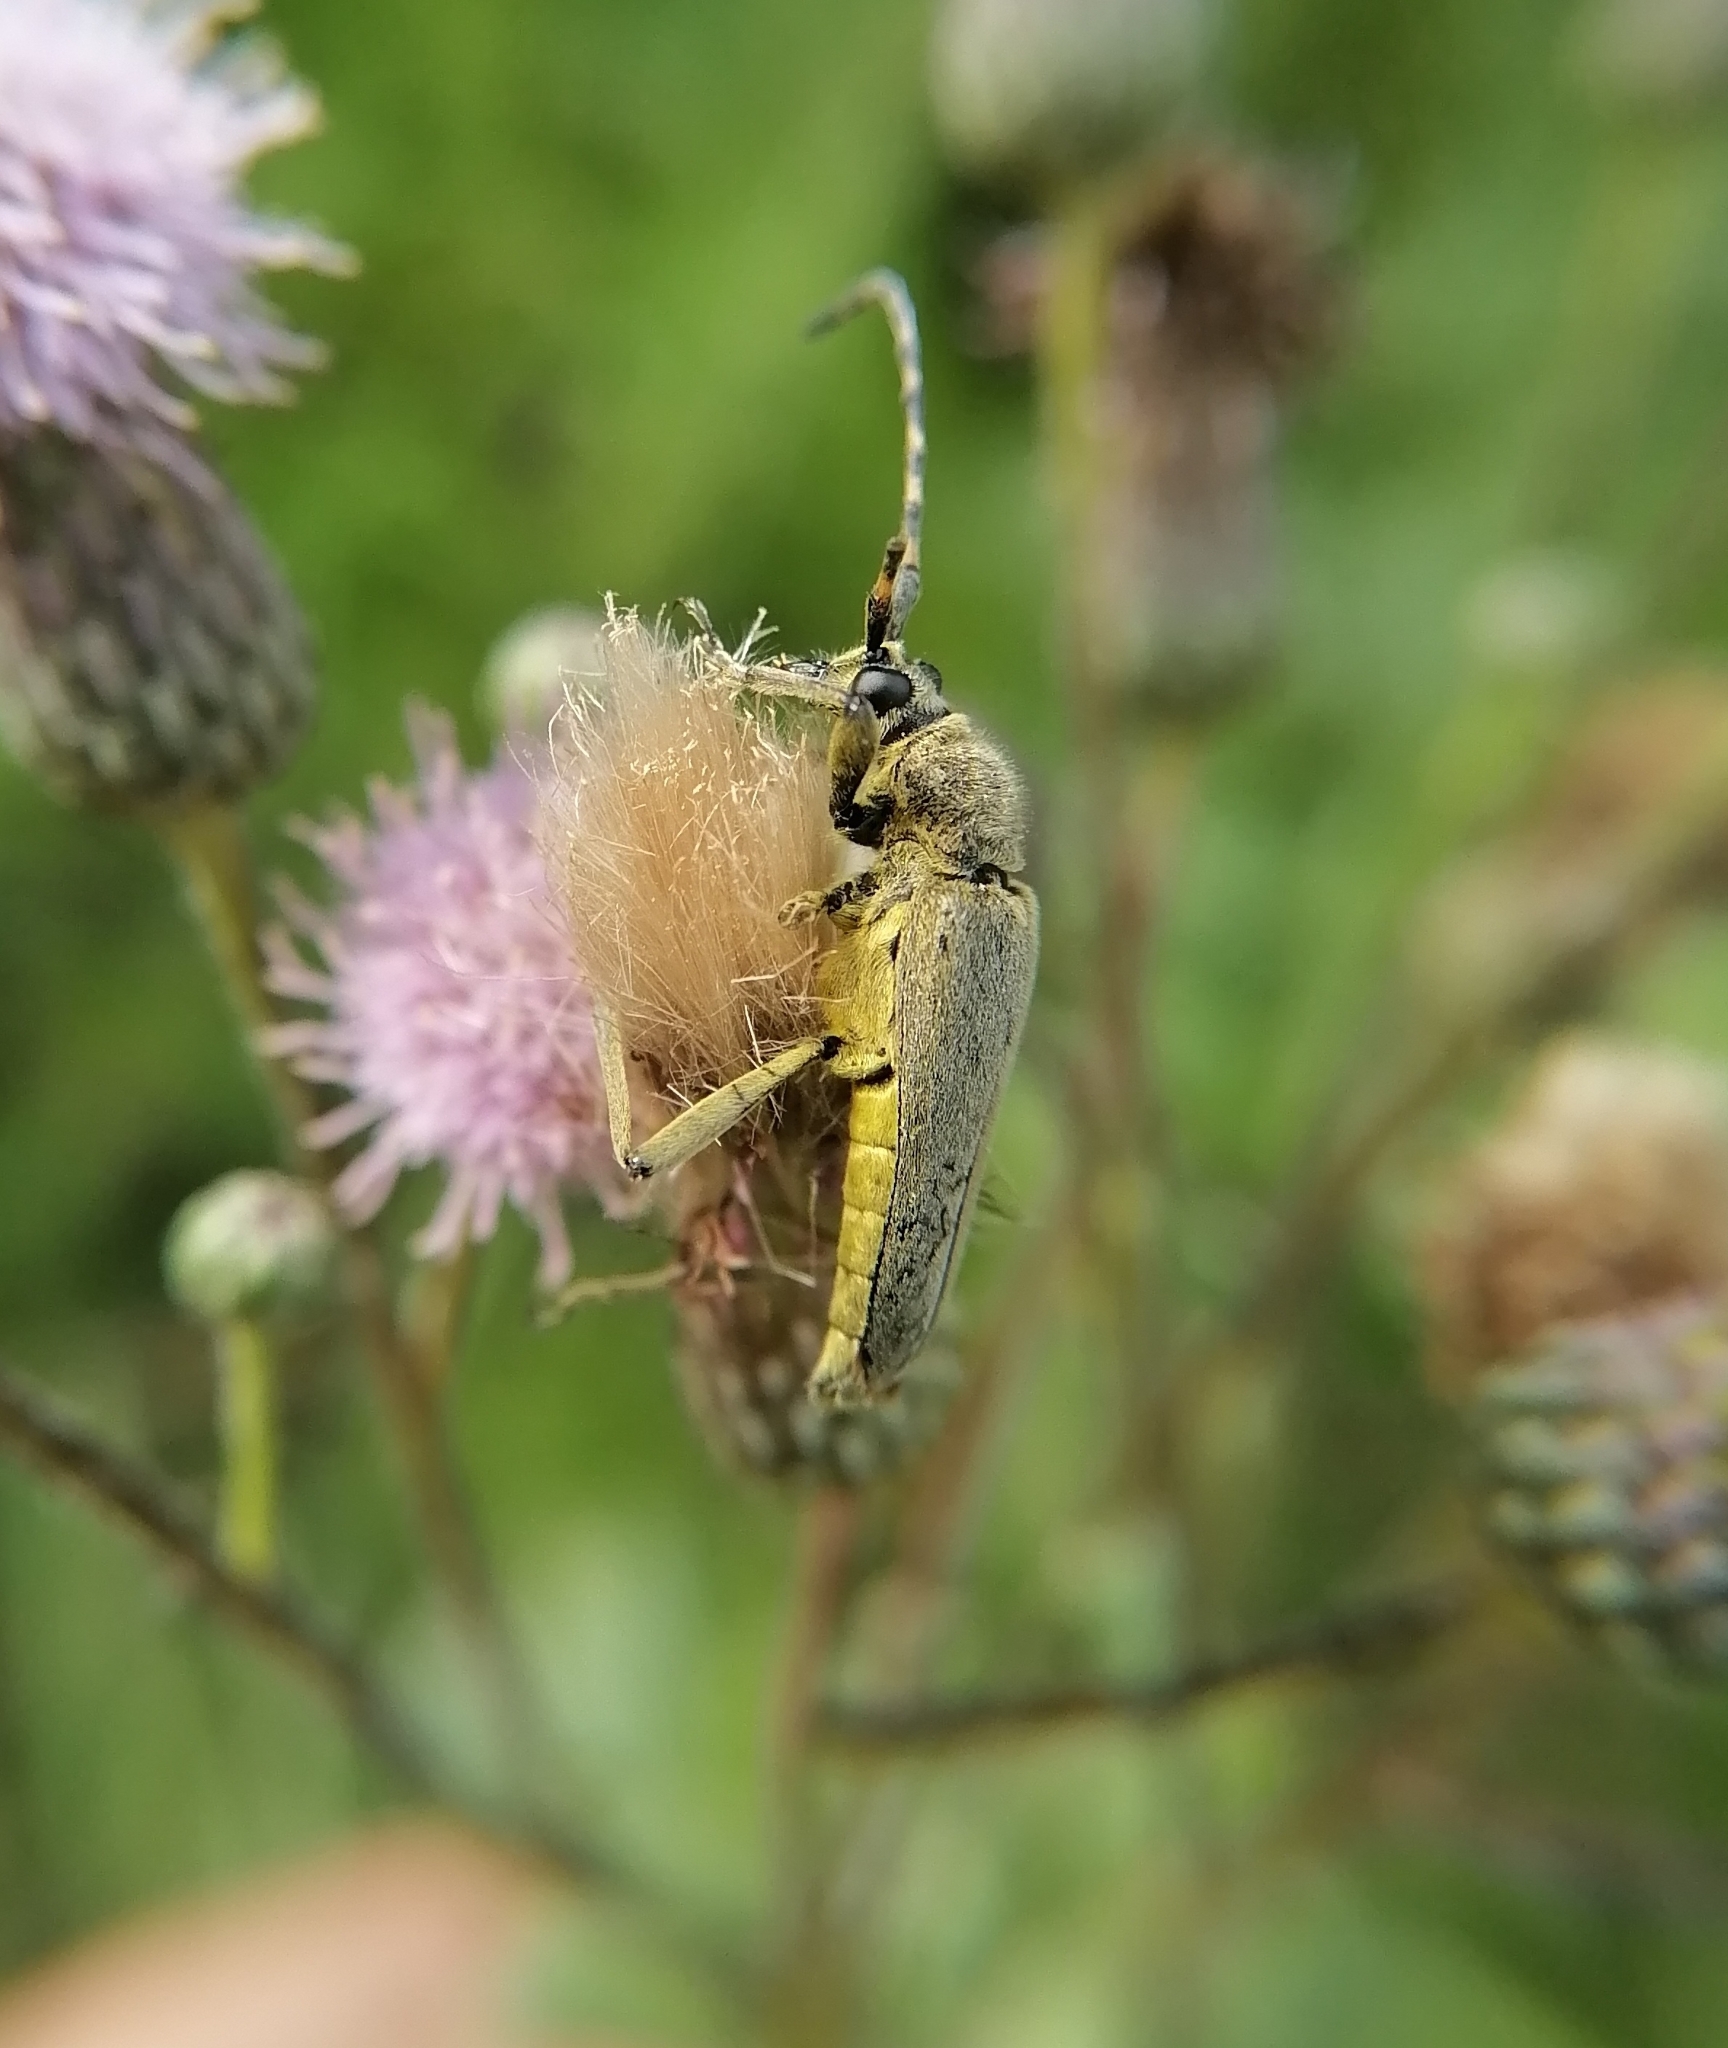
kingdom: Animalia
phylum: Arthropoda
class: Insecta
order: Coleoptera
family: Cerambycidae
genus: Lepturobosca
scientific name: Lepturobosca virens
